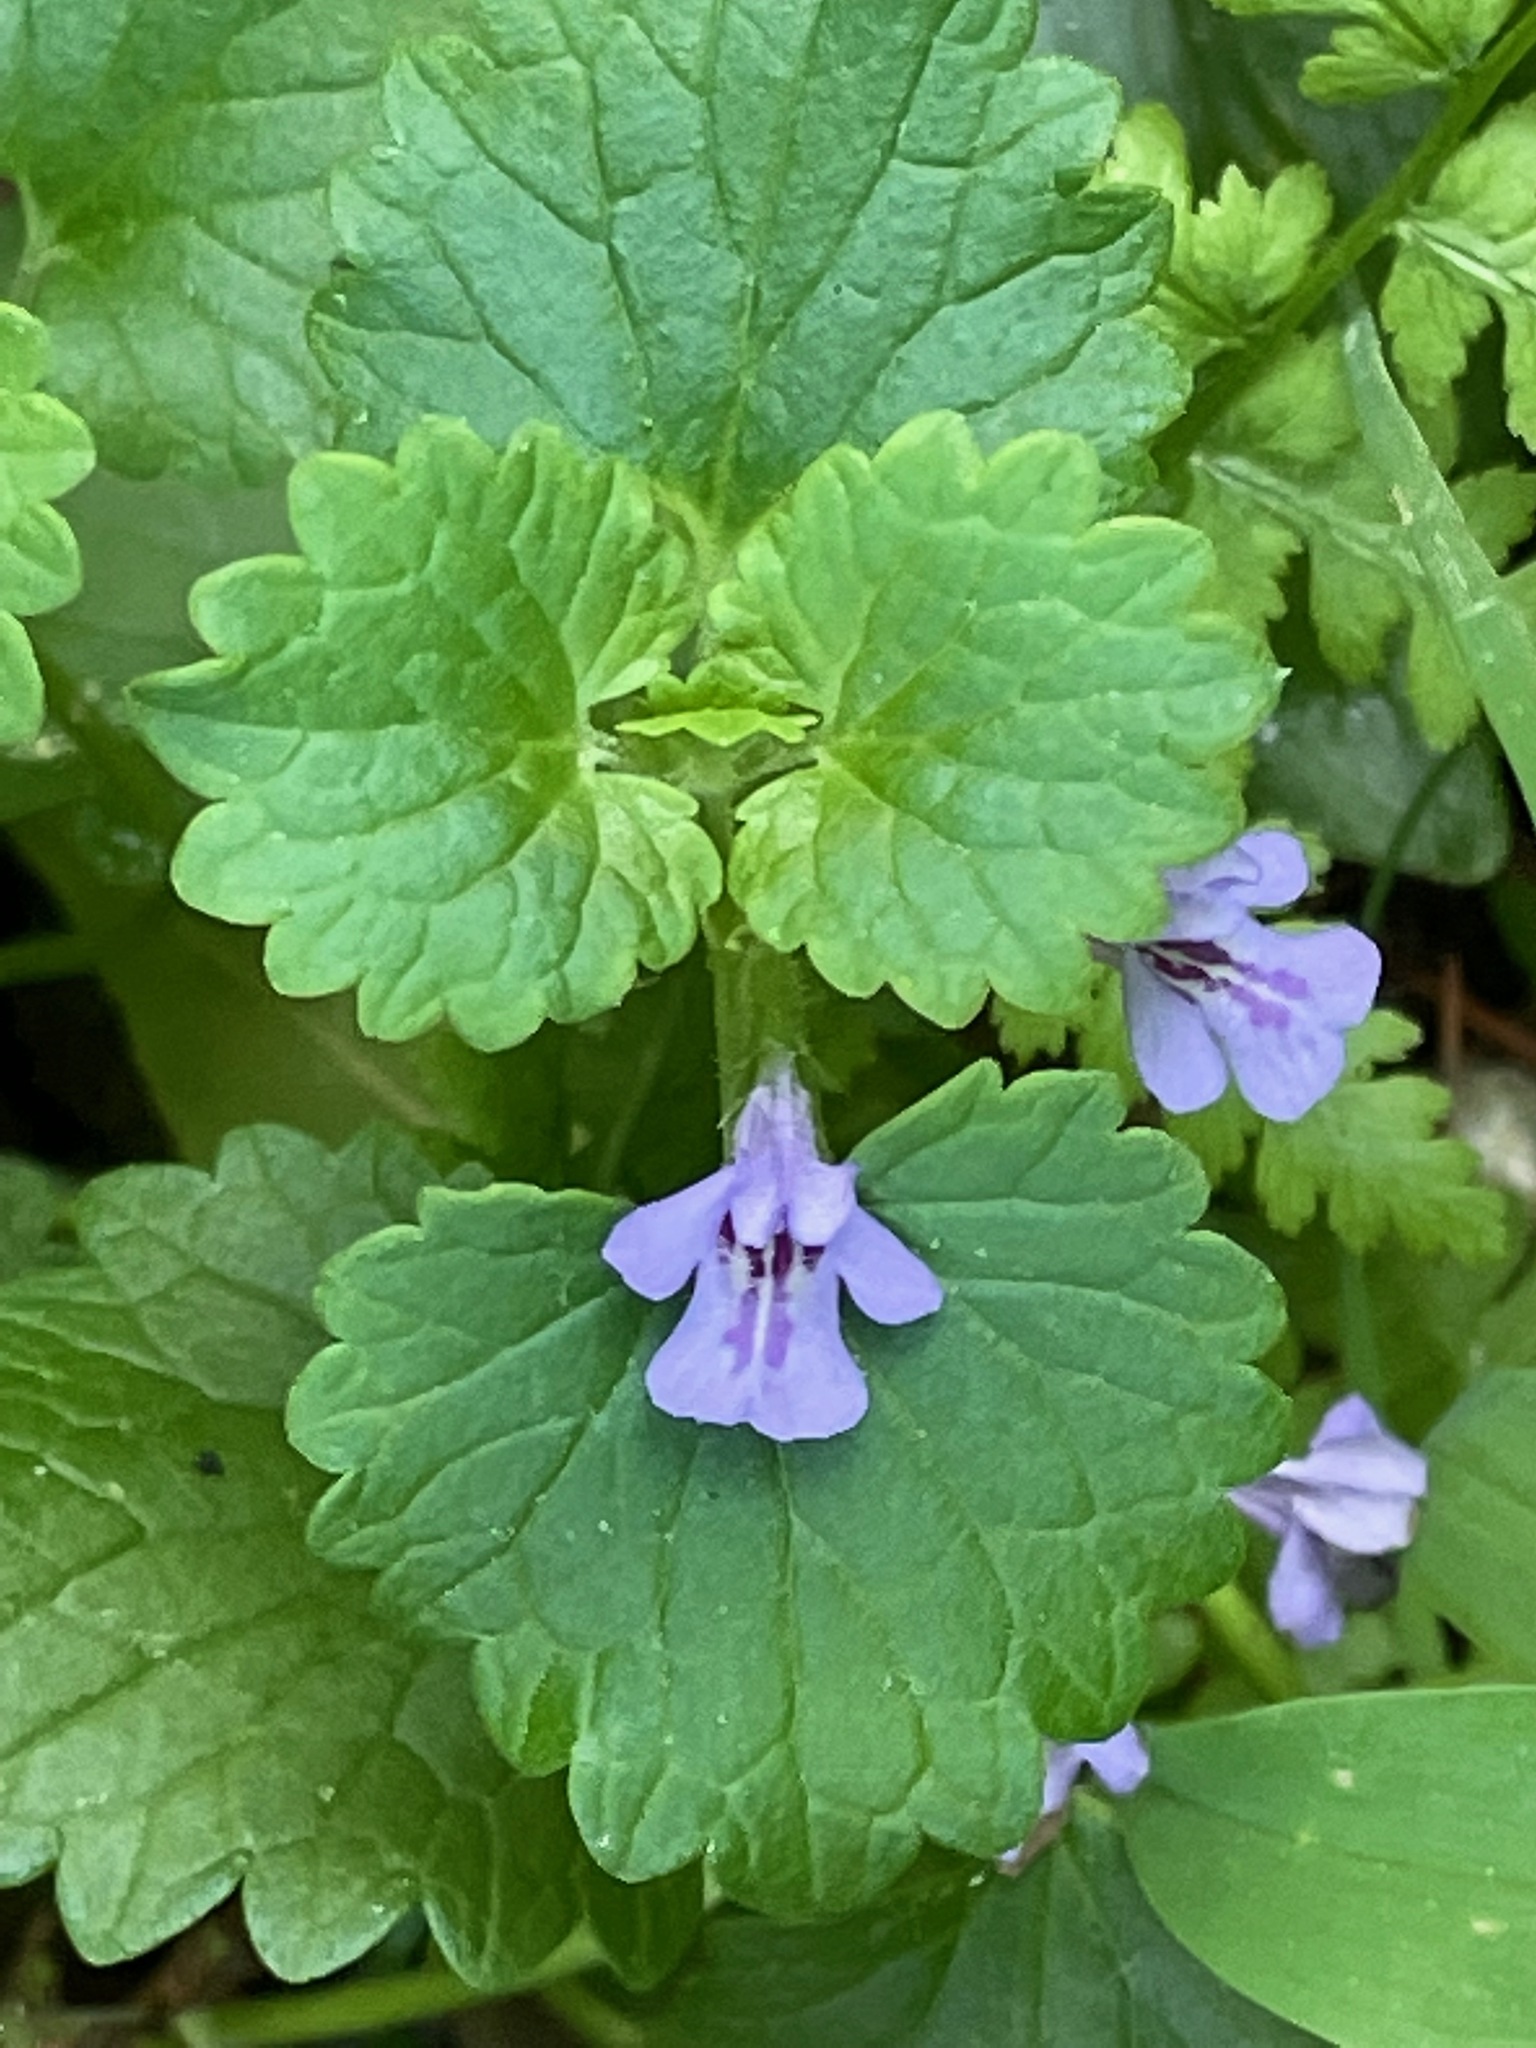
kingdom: Plantae
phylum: Tracheophyta
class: Magnoliopsida
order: Lamiales
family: Lamiaceae
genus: Glechoma
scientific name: Glechoma hederacea
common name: Ground ivy
